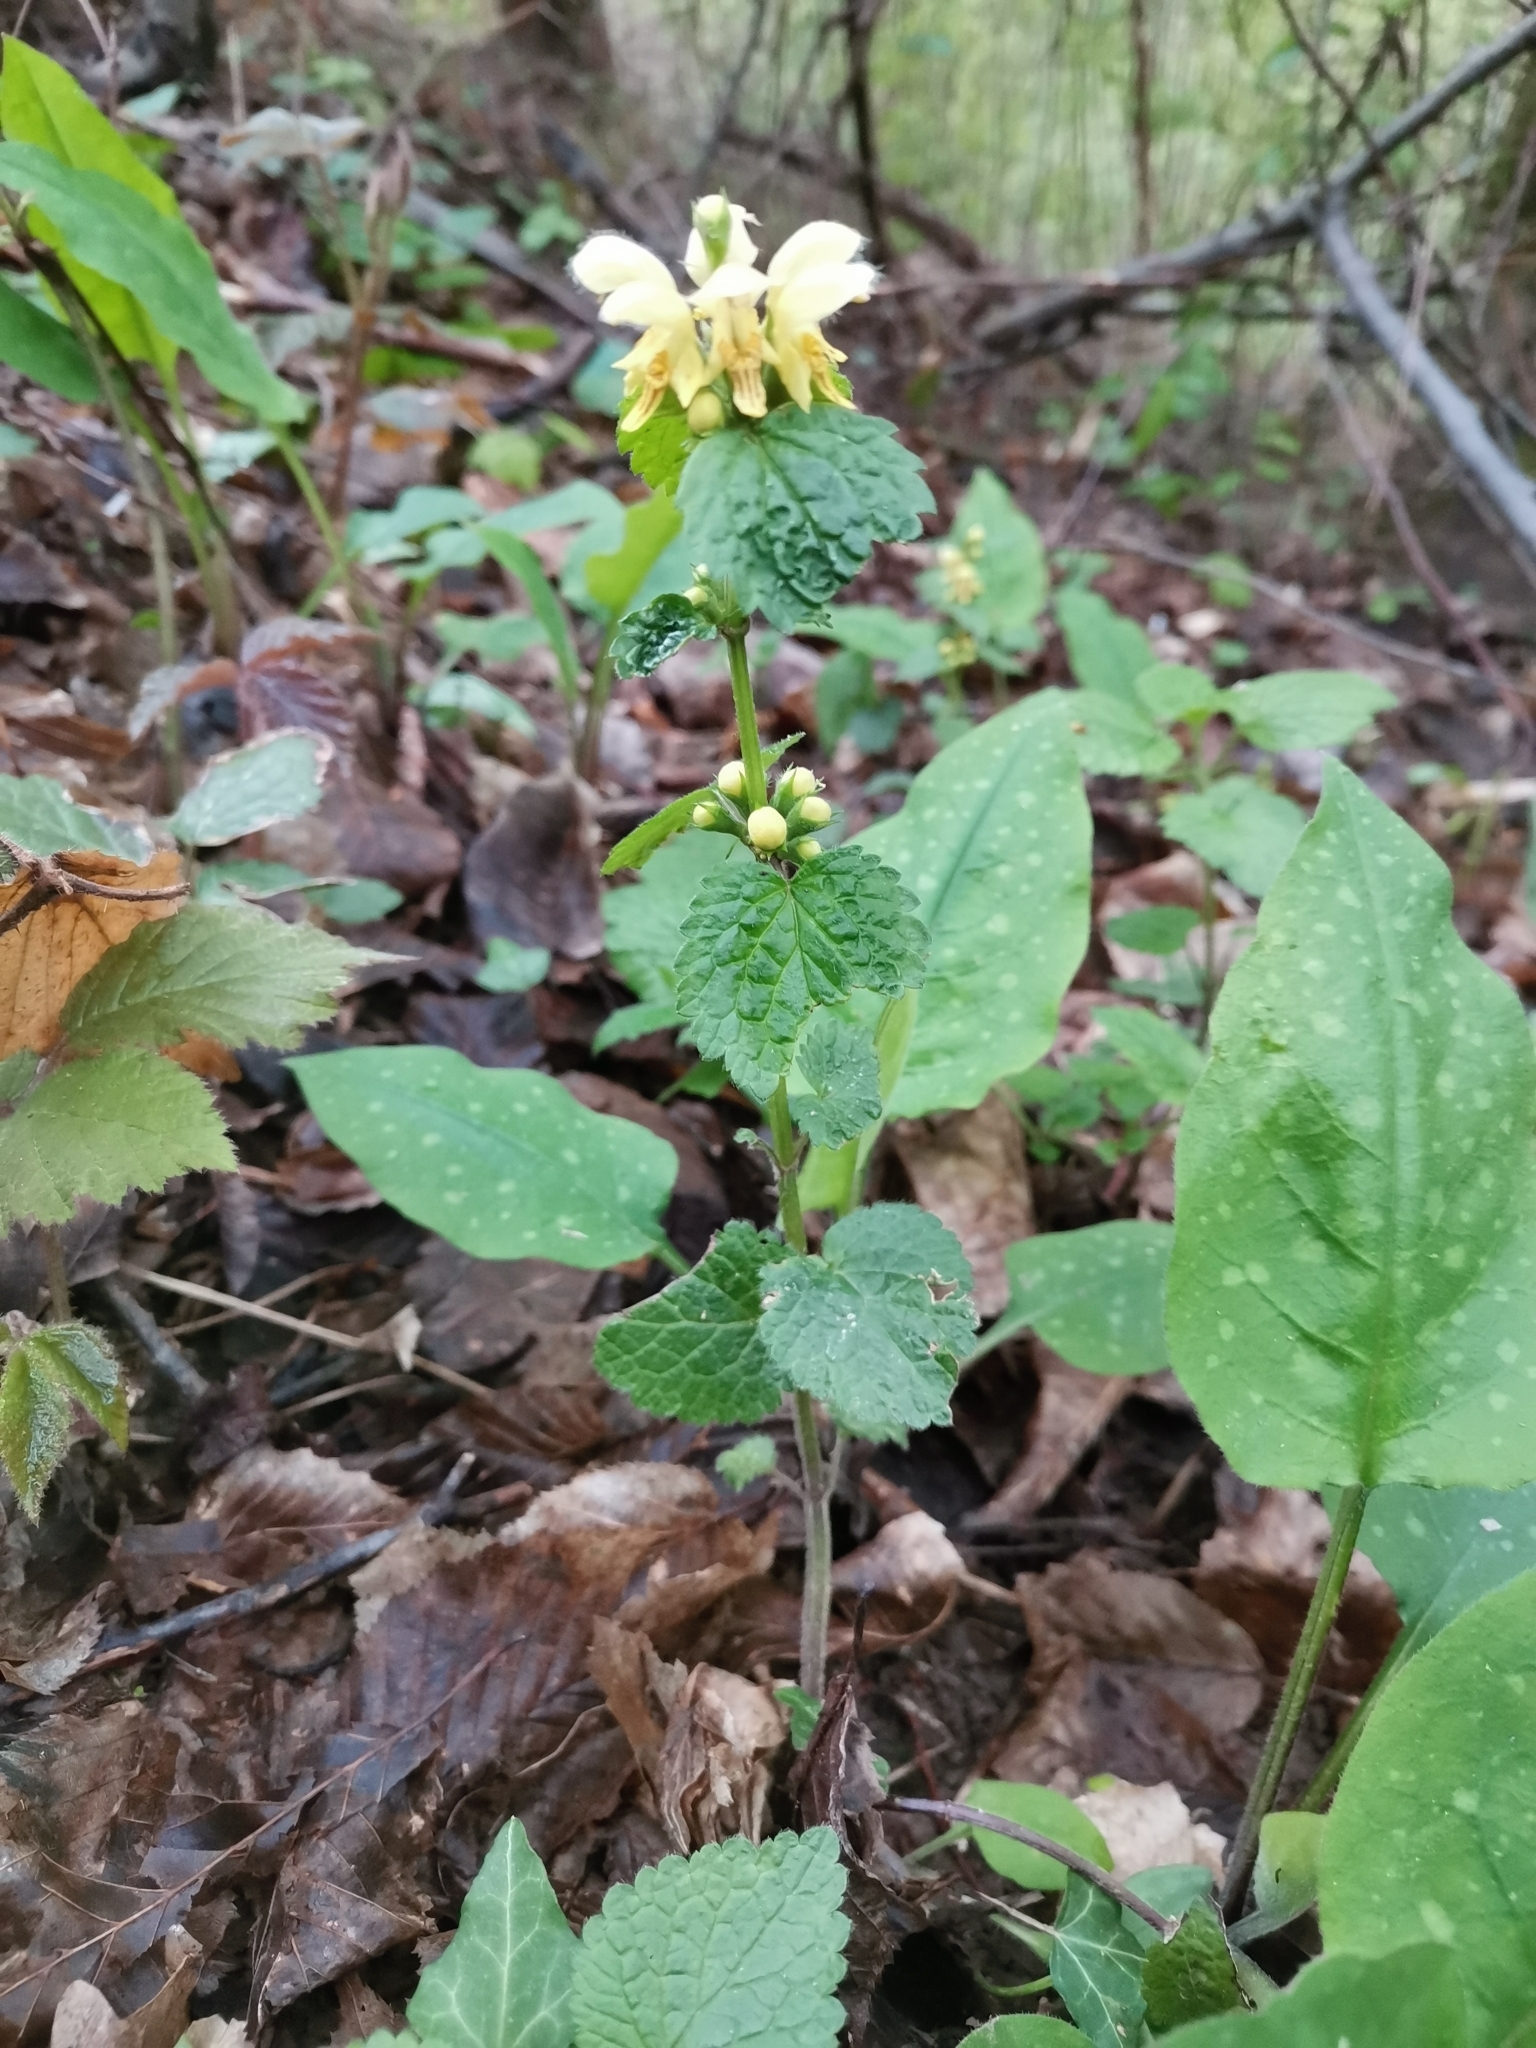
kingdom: Plantae
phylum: Tracheophyta
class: Magnoliopsida
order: Lamiales
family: Lamiaceae
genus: Lamium
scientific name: Lamium galeobdolon
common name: Yellow archangel
